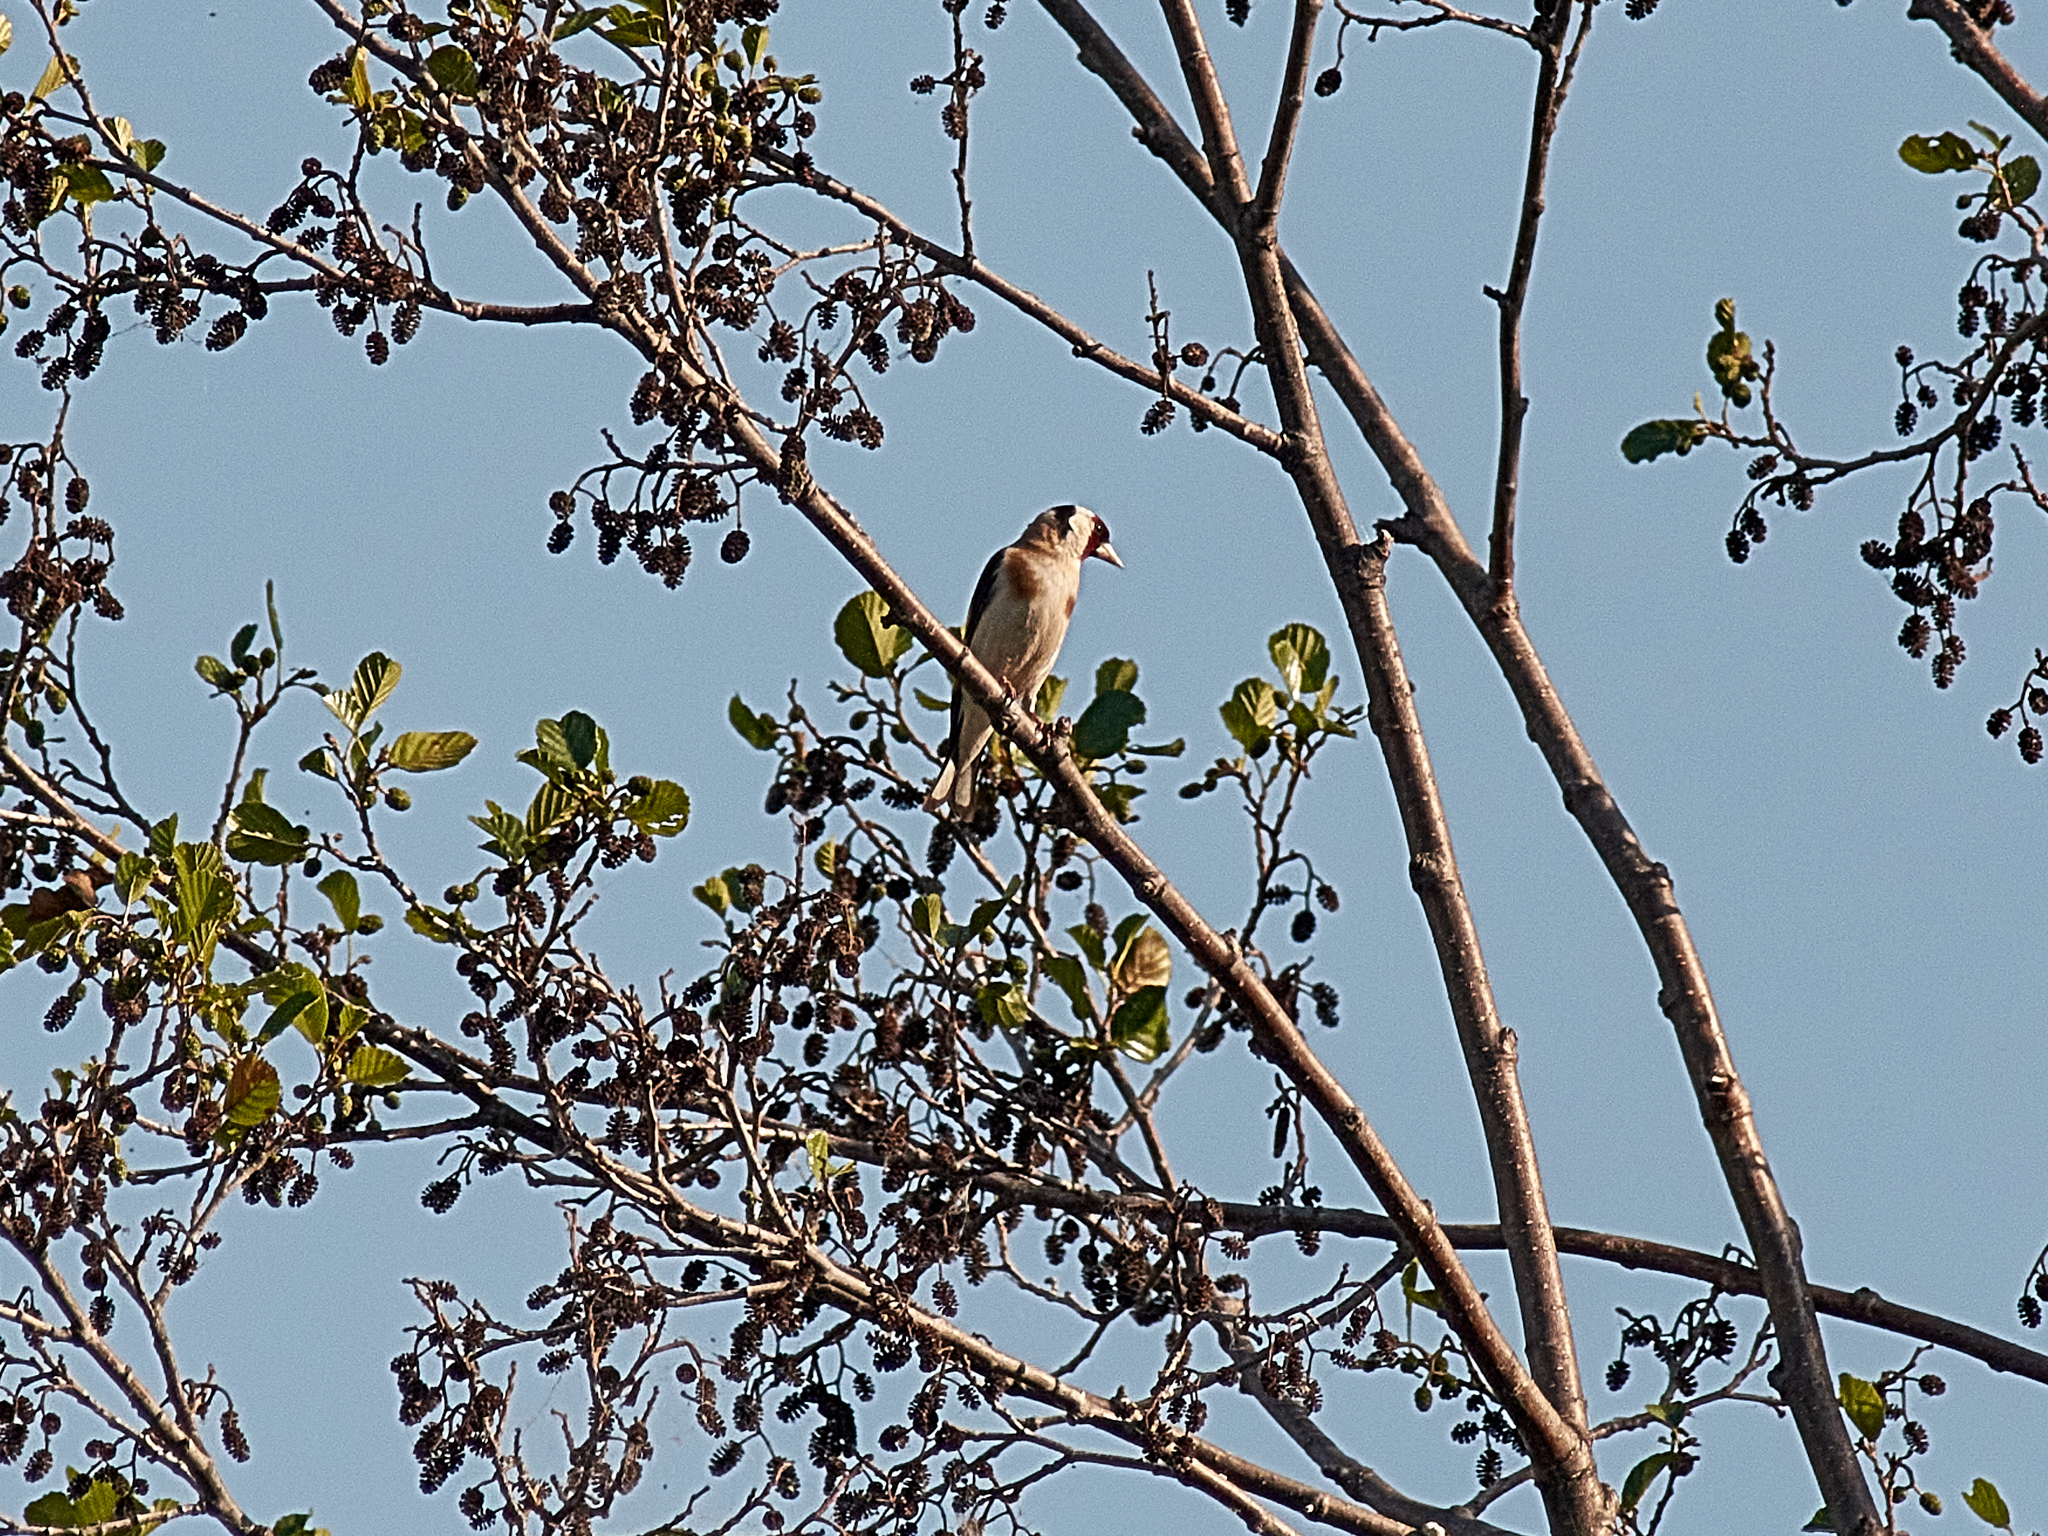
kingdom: Animalia
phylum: Chordata
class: Aves
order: Passeriformes
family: Fringillidae
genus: Carduelis
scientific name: Carduelis carduelis
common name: European goldfinch
